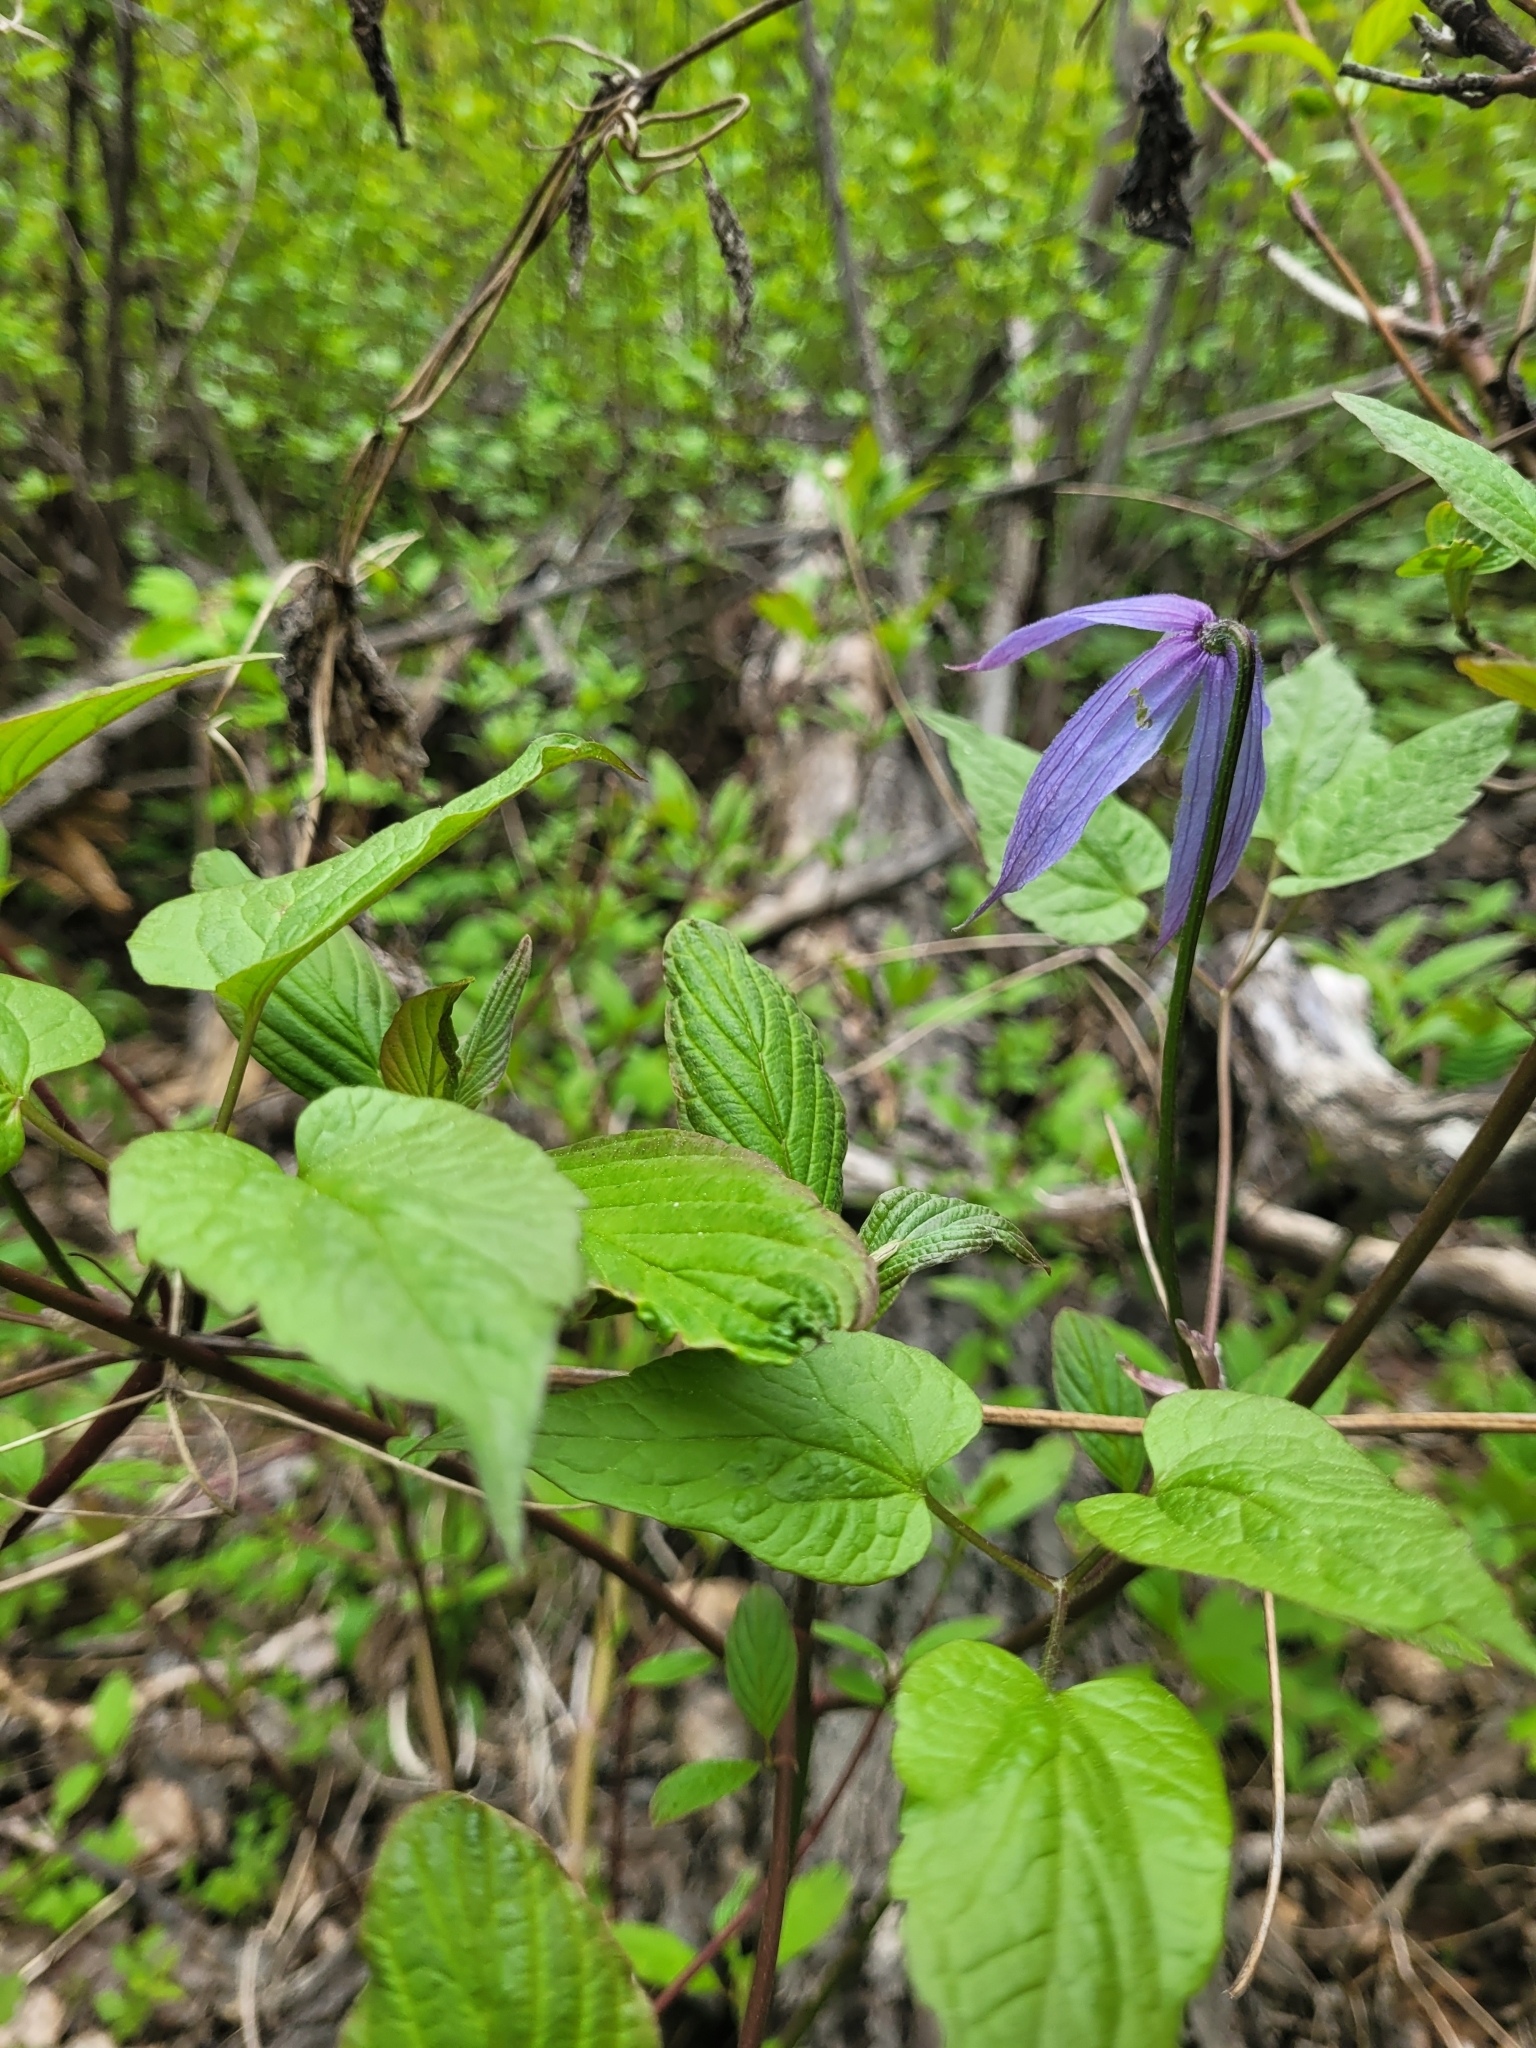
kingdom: Plantae
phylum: Tracheophyta
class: Magnoliopsida
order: Ranunculales
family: Ranunculaceae
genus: Clematis
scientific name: Clematis occidentalis
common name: Purple clematis
